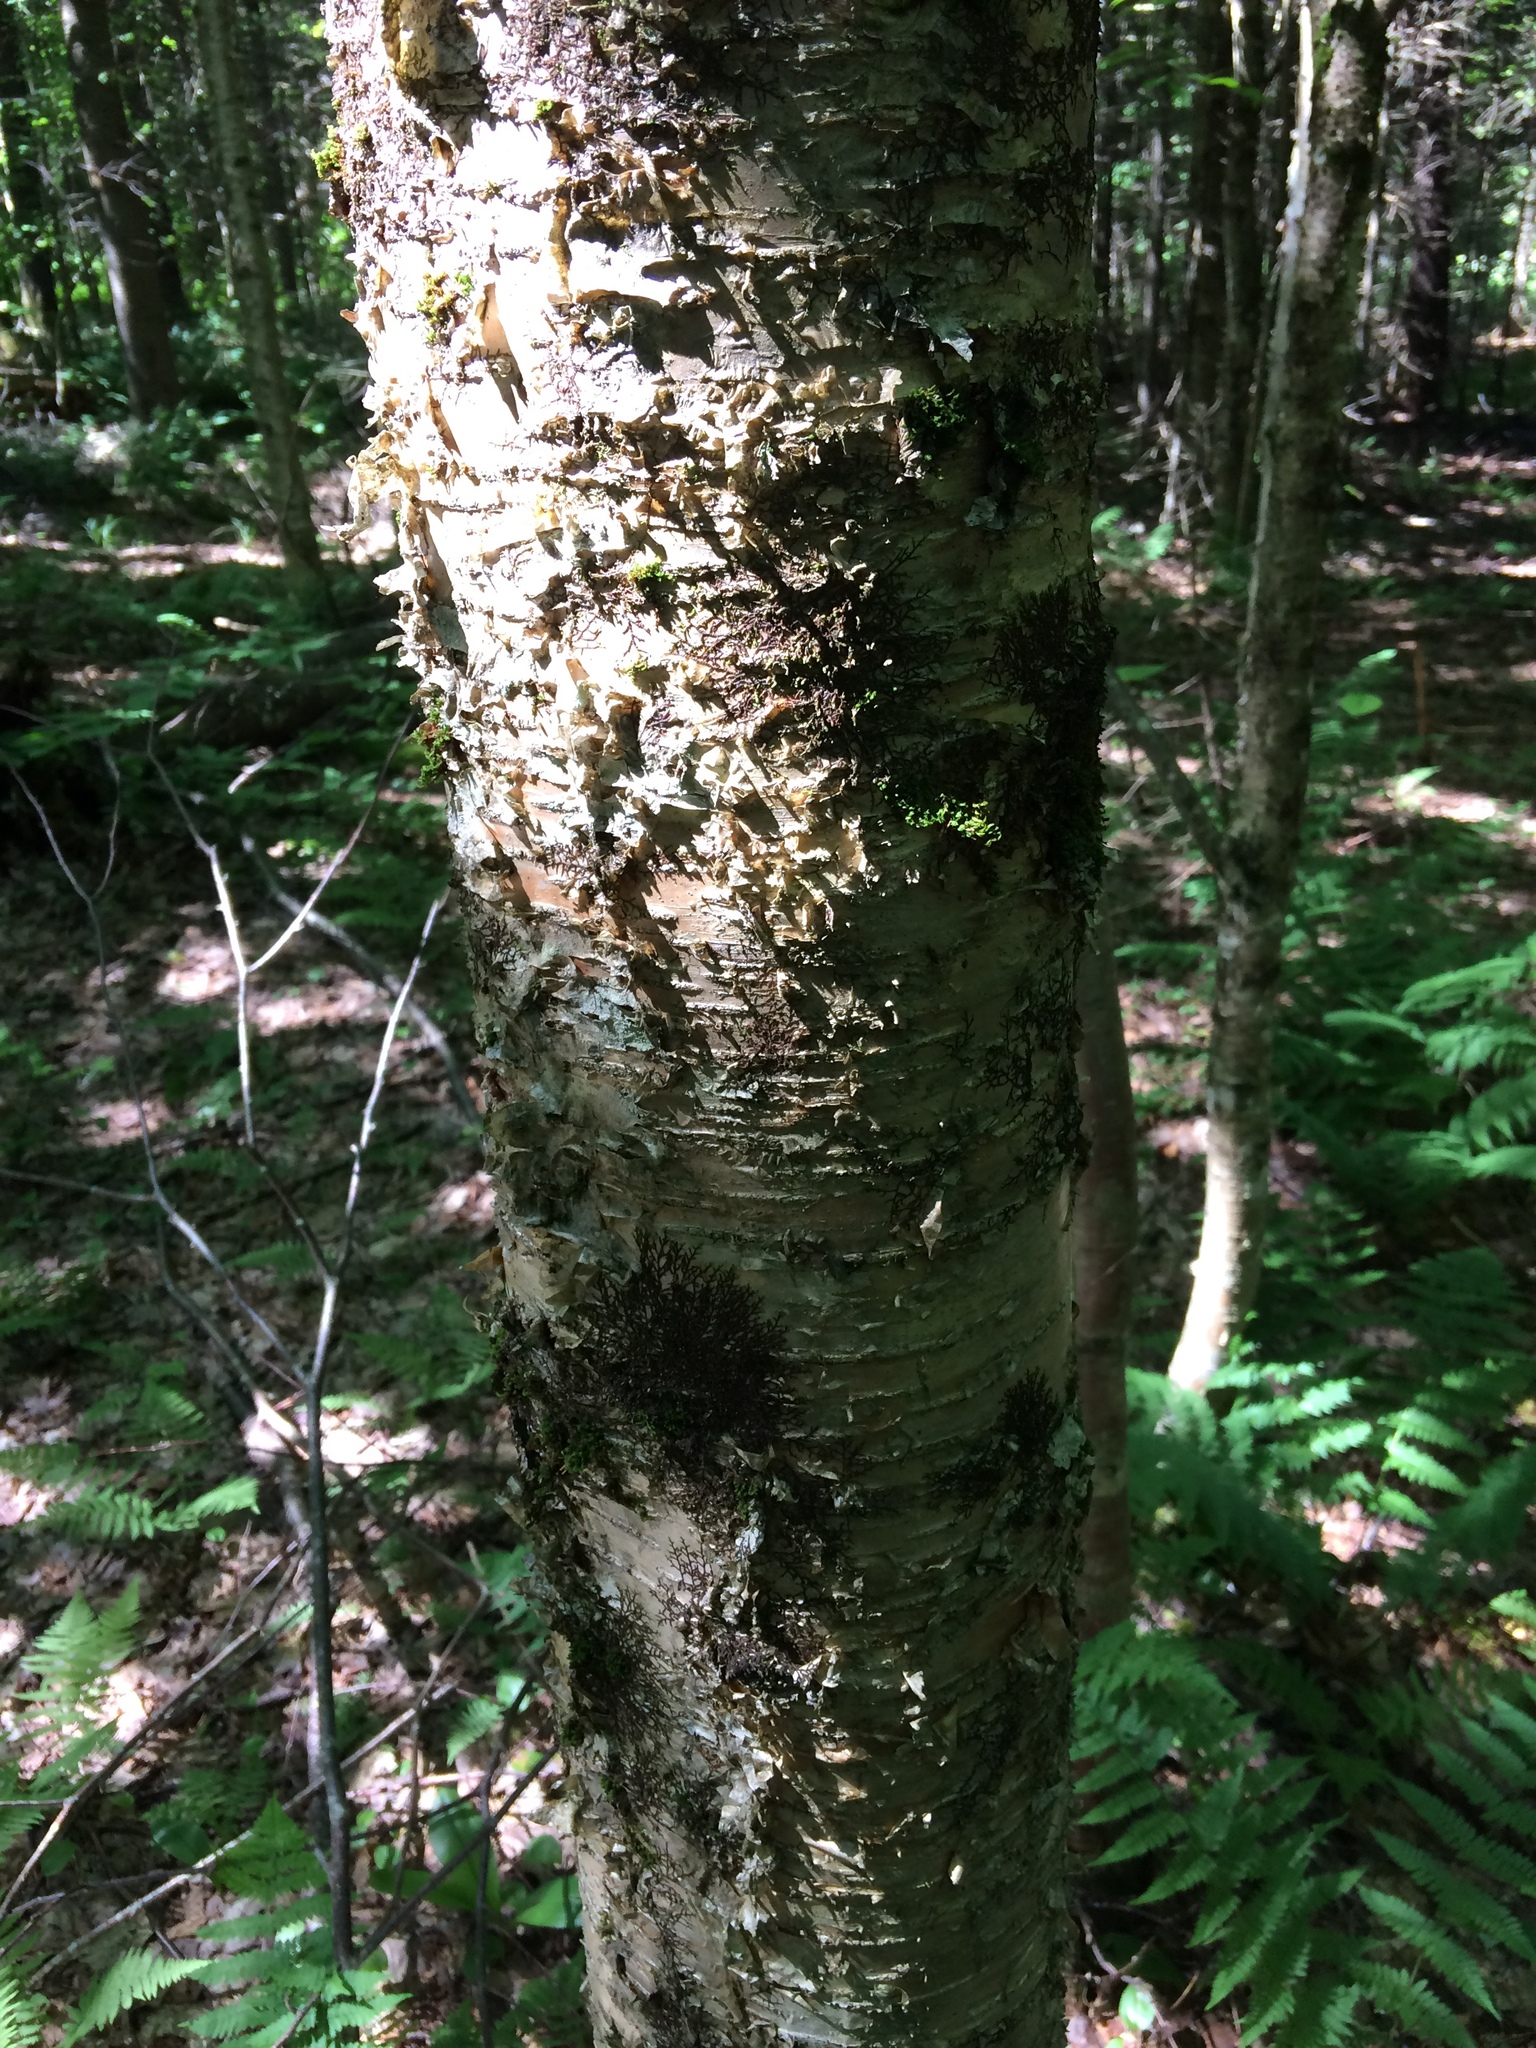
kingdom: Plantae
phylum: Tracheophyta
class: Magnoliopsida
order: Fagales
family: Betulaceae
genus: Betula
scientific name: Betula alleghaniensis
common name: Yellow birch
